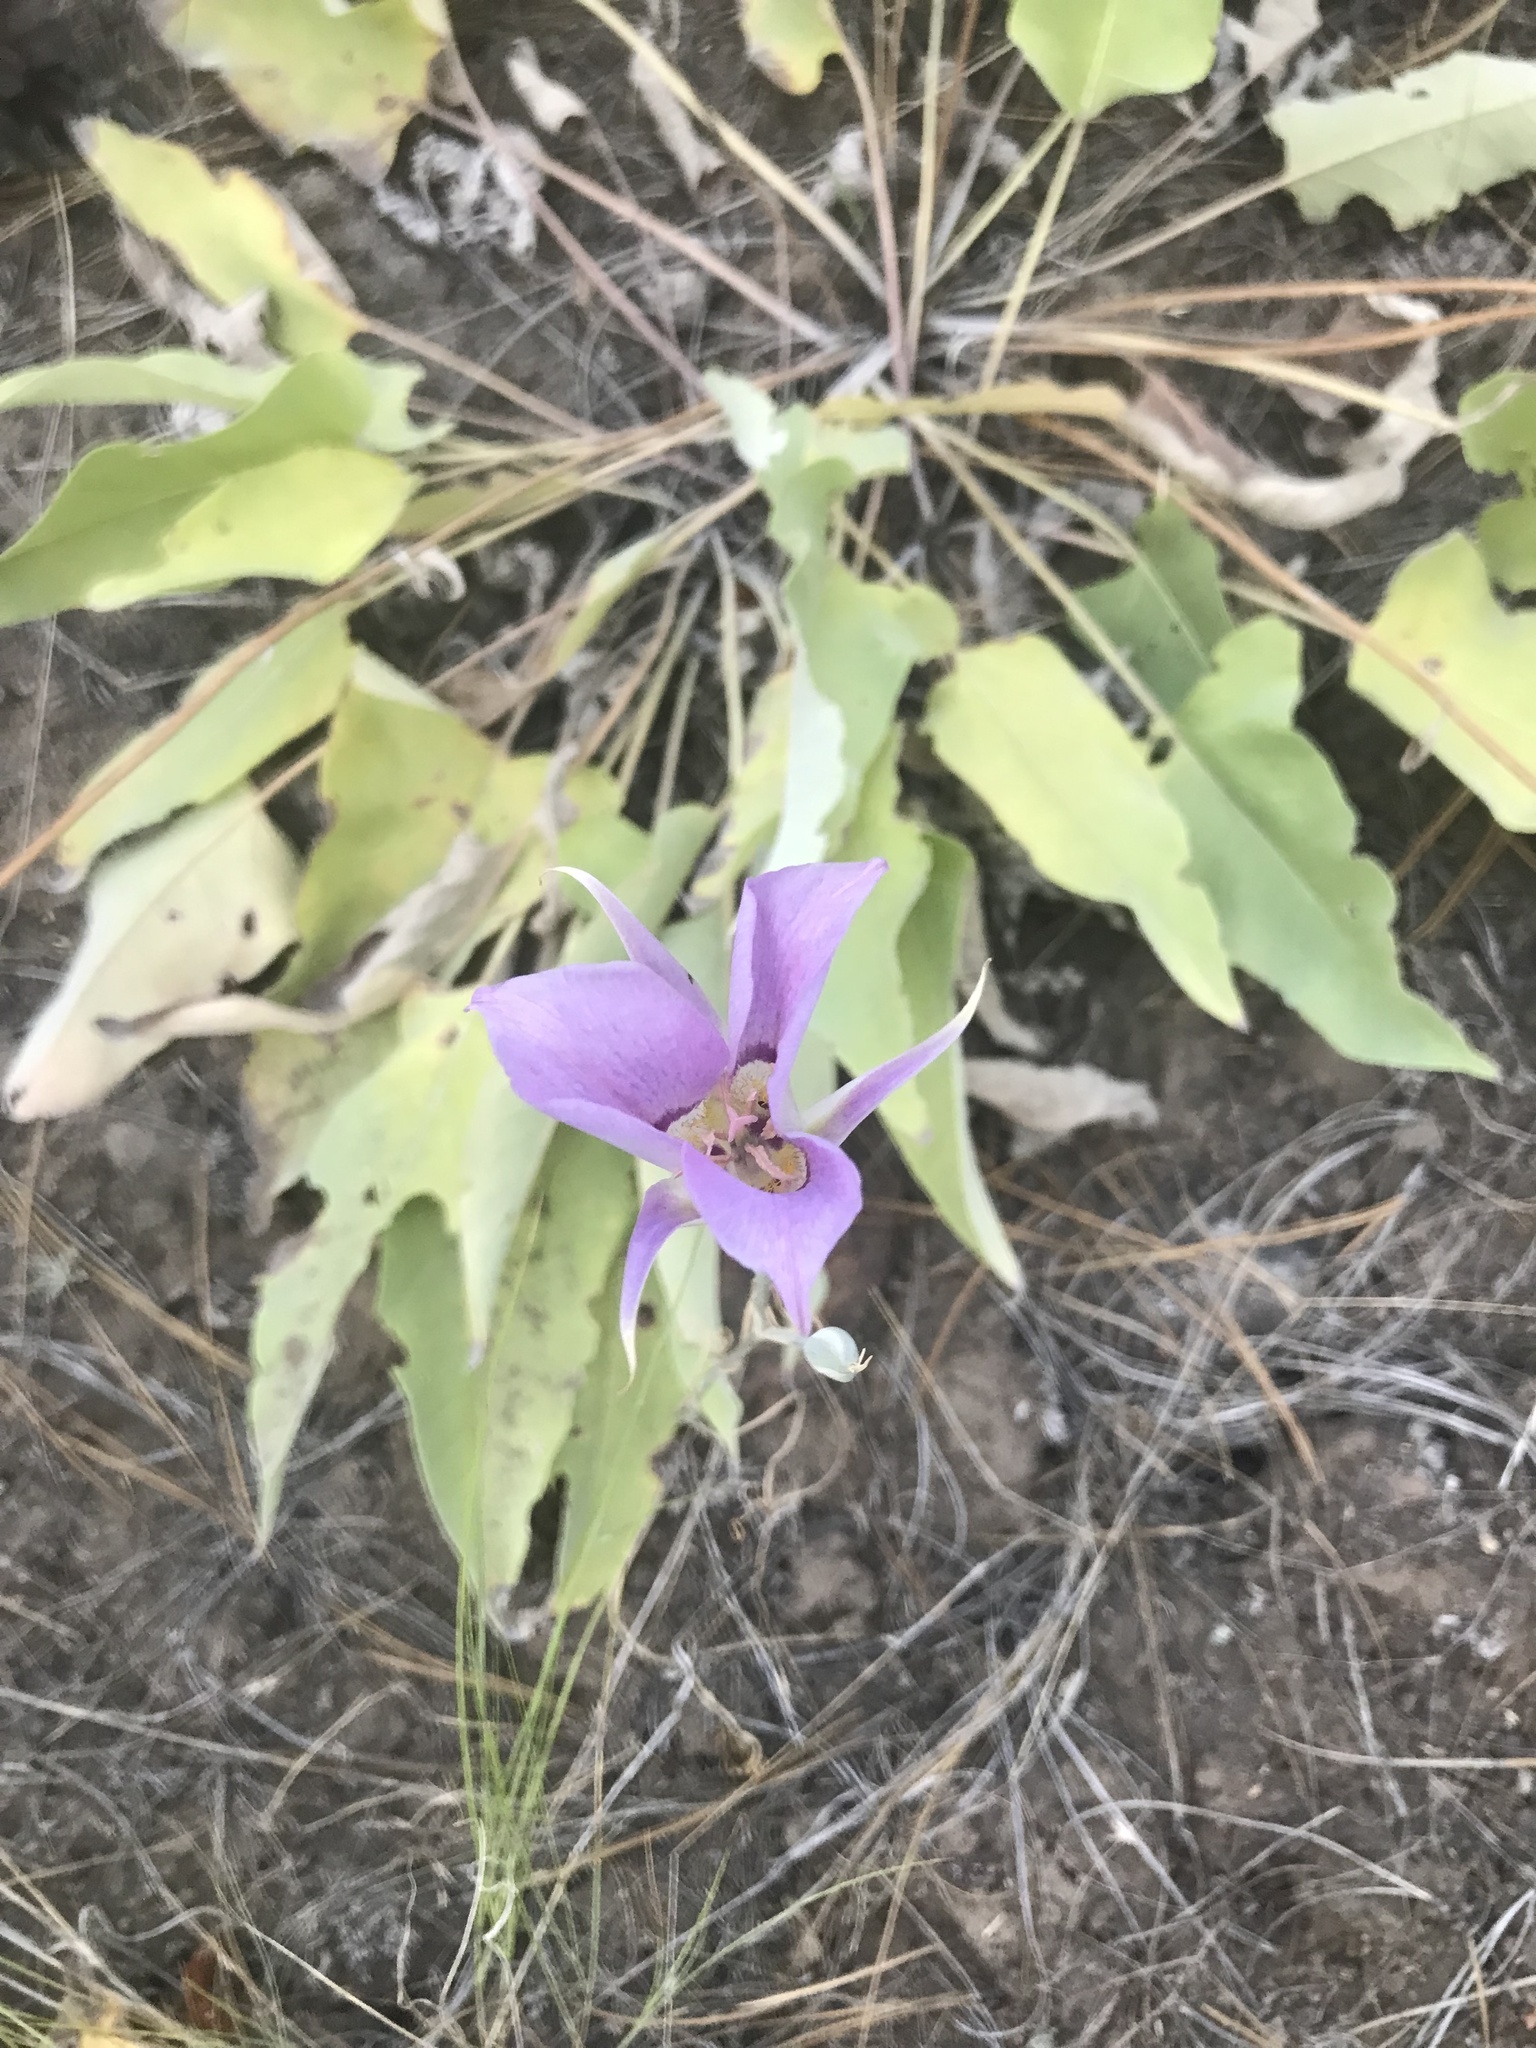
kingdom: Plantae
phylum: Tracheophyta
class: Liliopsida
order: Liliales
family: Liliaceae
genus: Calochortus
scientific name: Calochortus macrocarpus
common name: Green-band mariposa lily
